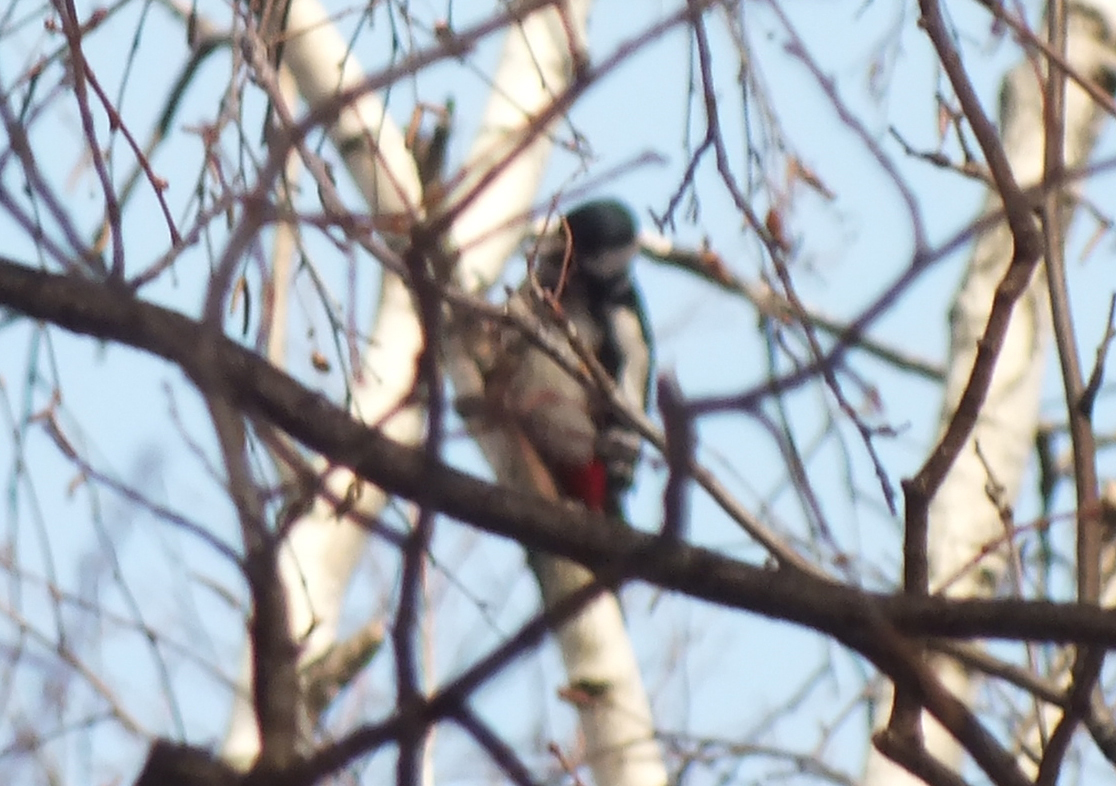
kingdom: Animalia
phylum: Chordata
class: Aves
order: Piciformes
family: Picidae
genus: Dendrocopos
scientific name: Dendrocopos major
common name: Great spotted woodpecker
